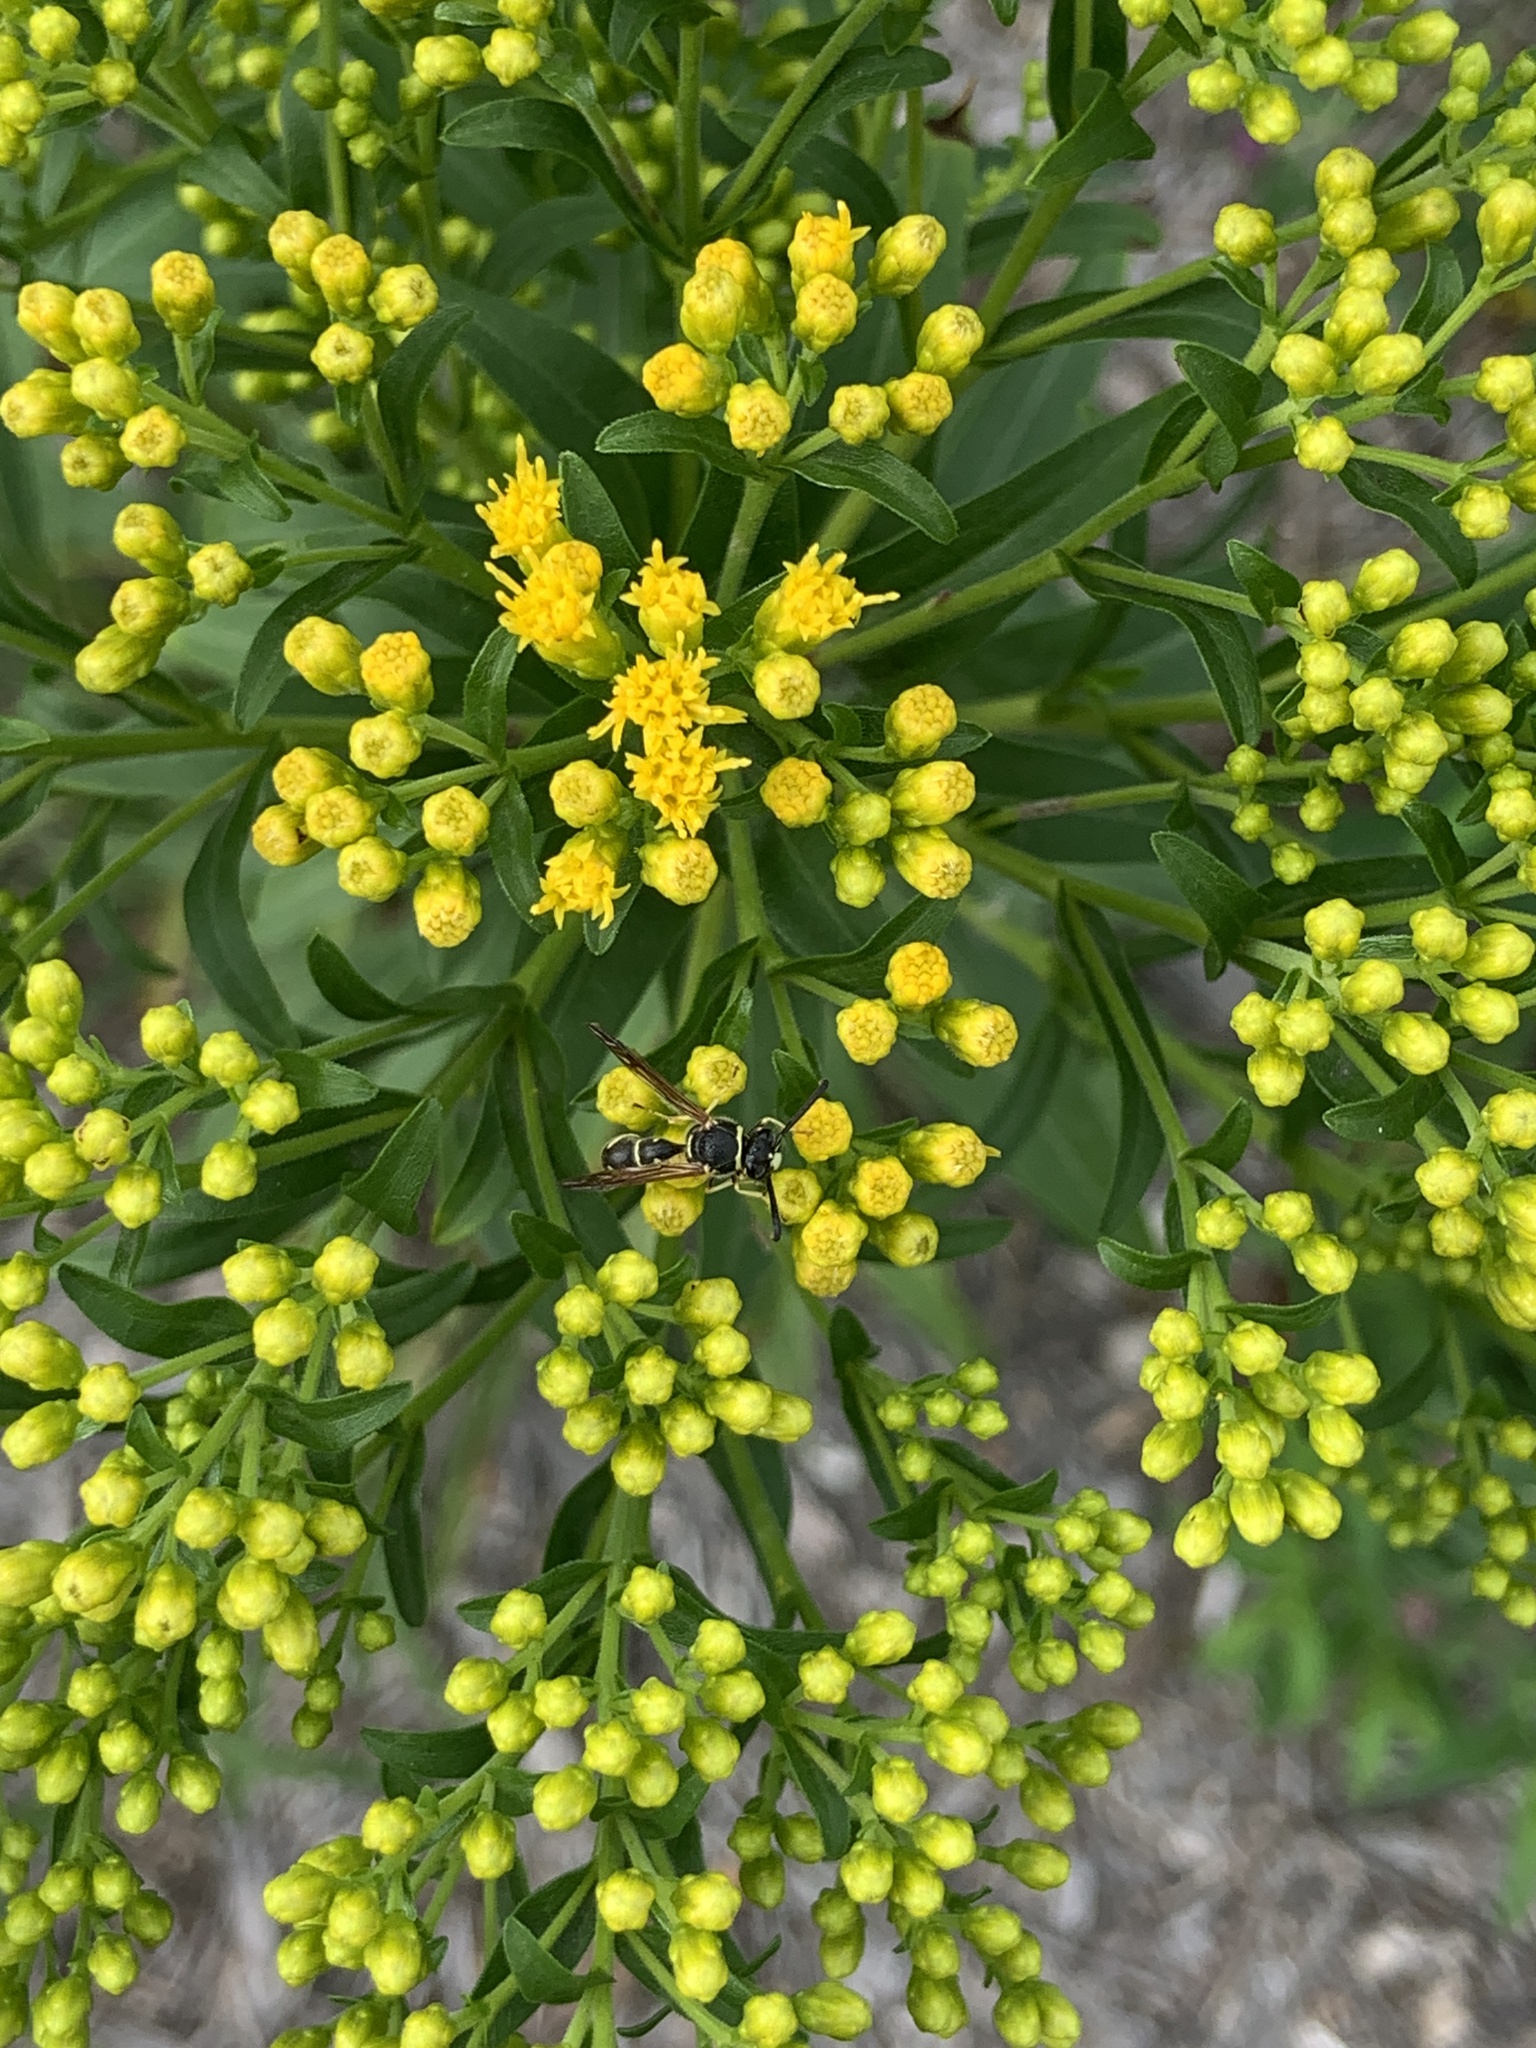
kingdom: Animalia
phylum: Arthropoda
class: Insecta
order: Hymenoptera
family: Vespidae
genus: Eumenes
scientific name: Eumenes fraternus
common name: Fraternal potter wasp
